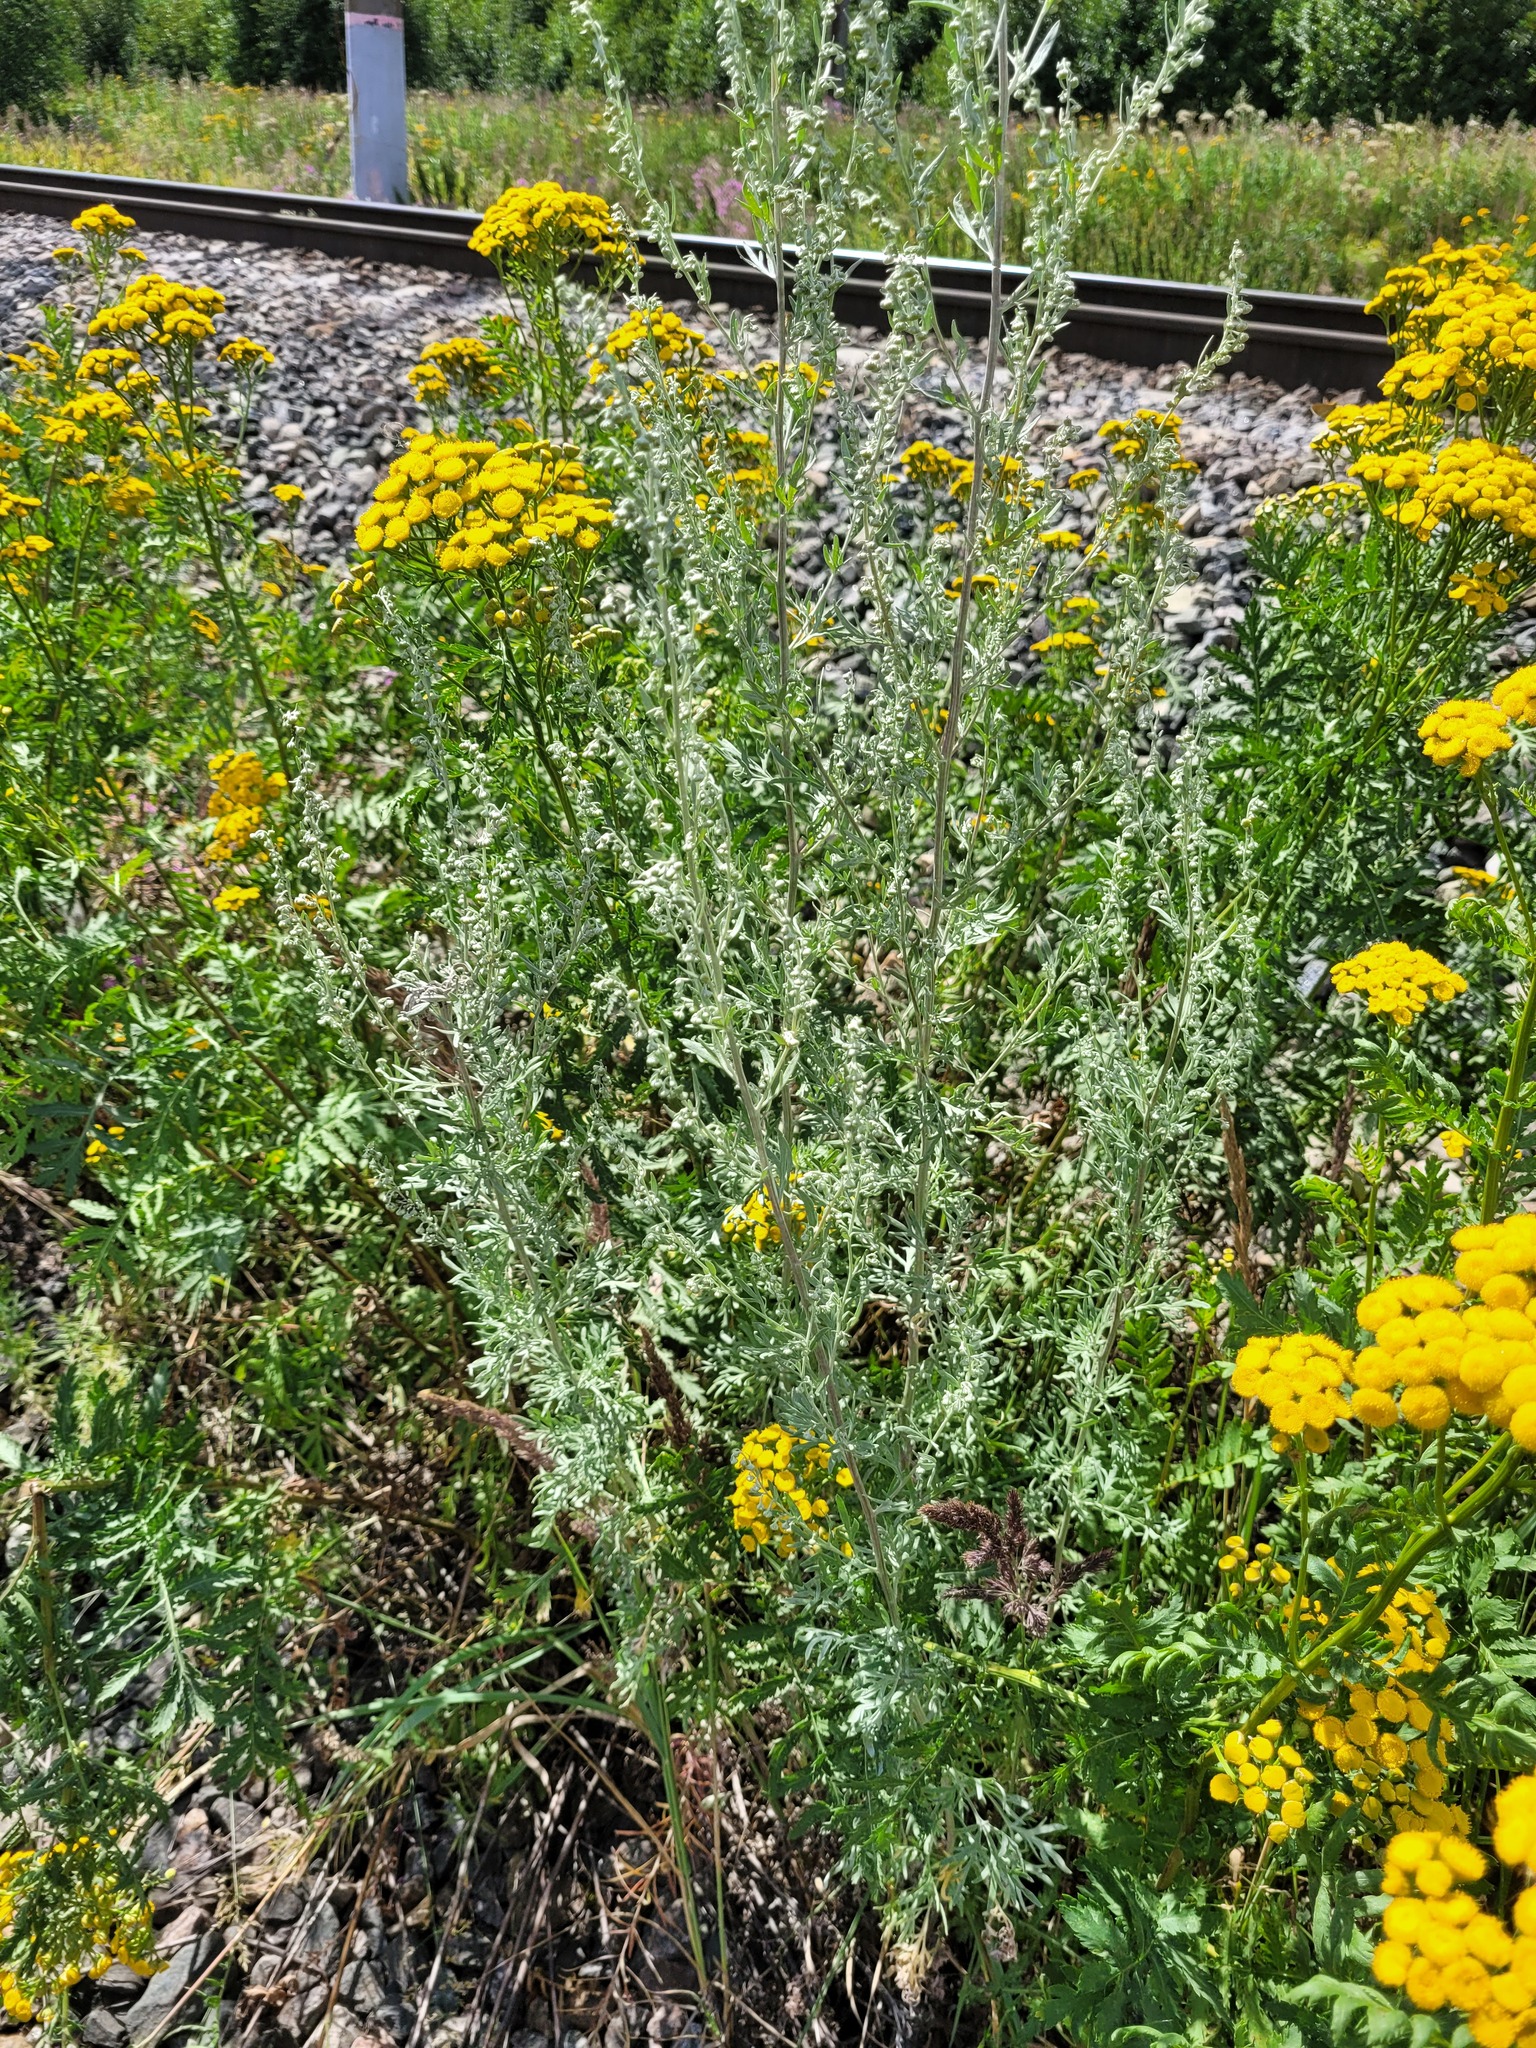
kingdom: Plantae
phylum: Tracheophyta
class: Magnoliopsida
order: Asterales
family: Asteraceae
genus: Artemisia
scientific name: Artemisia absinthium
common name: Wormwood
